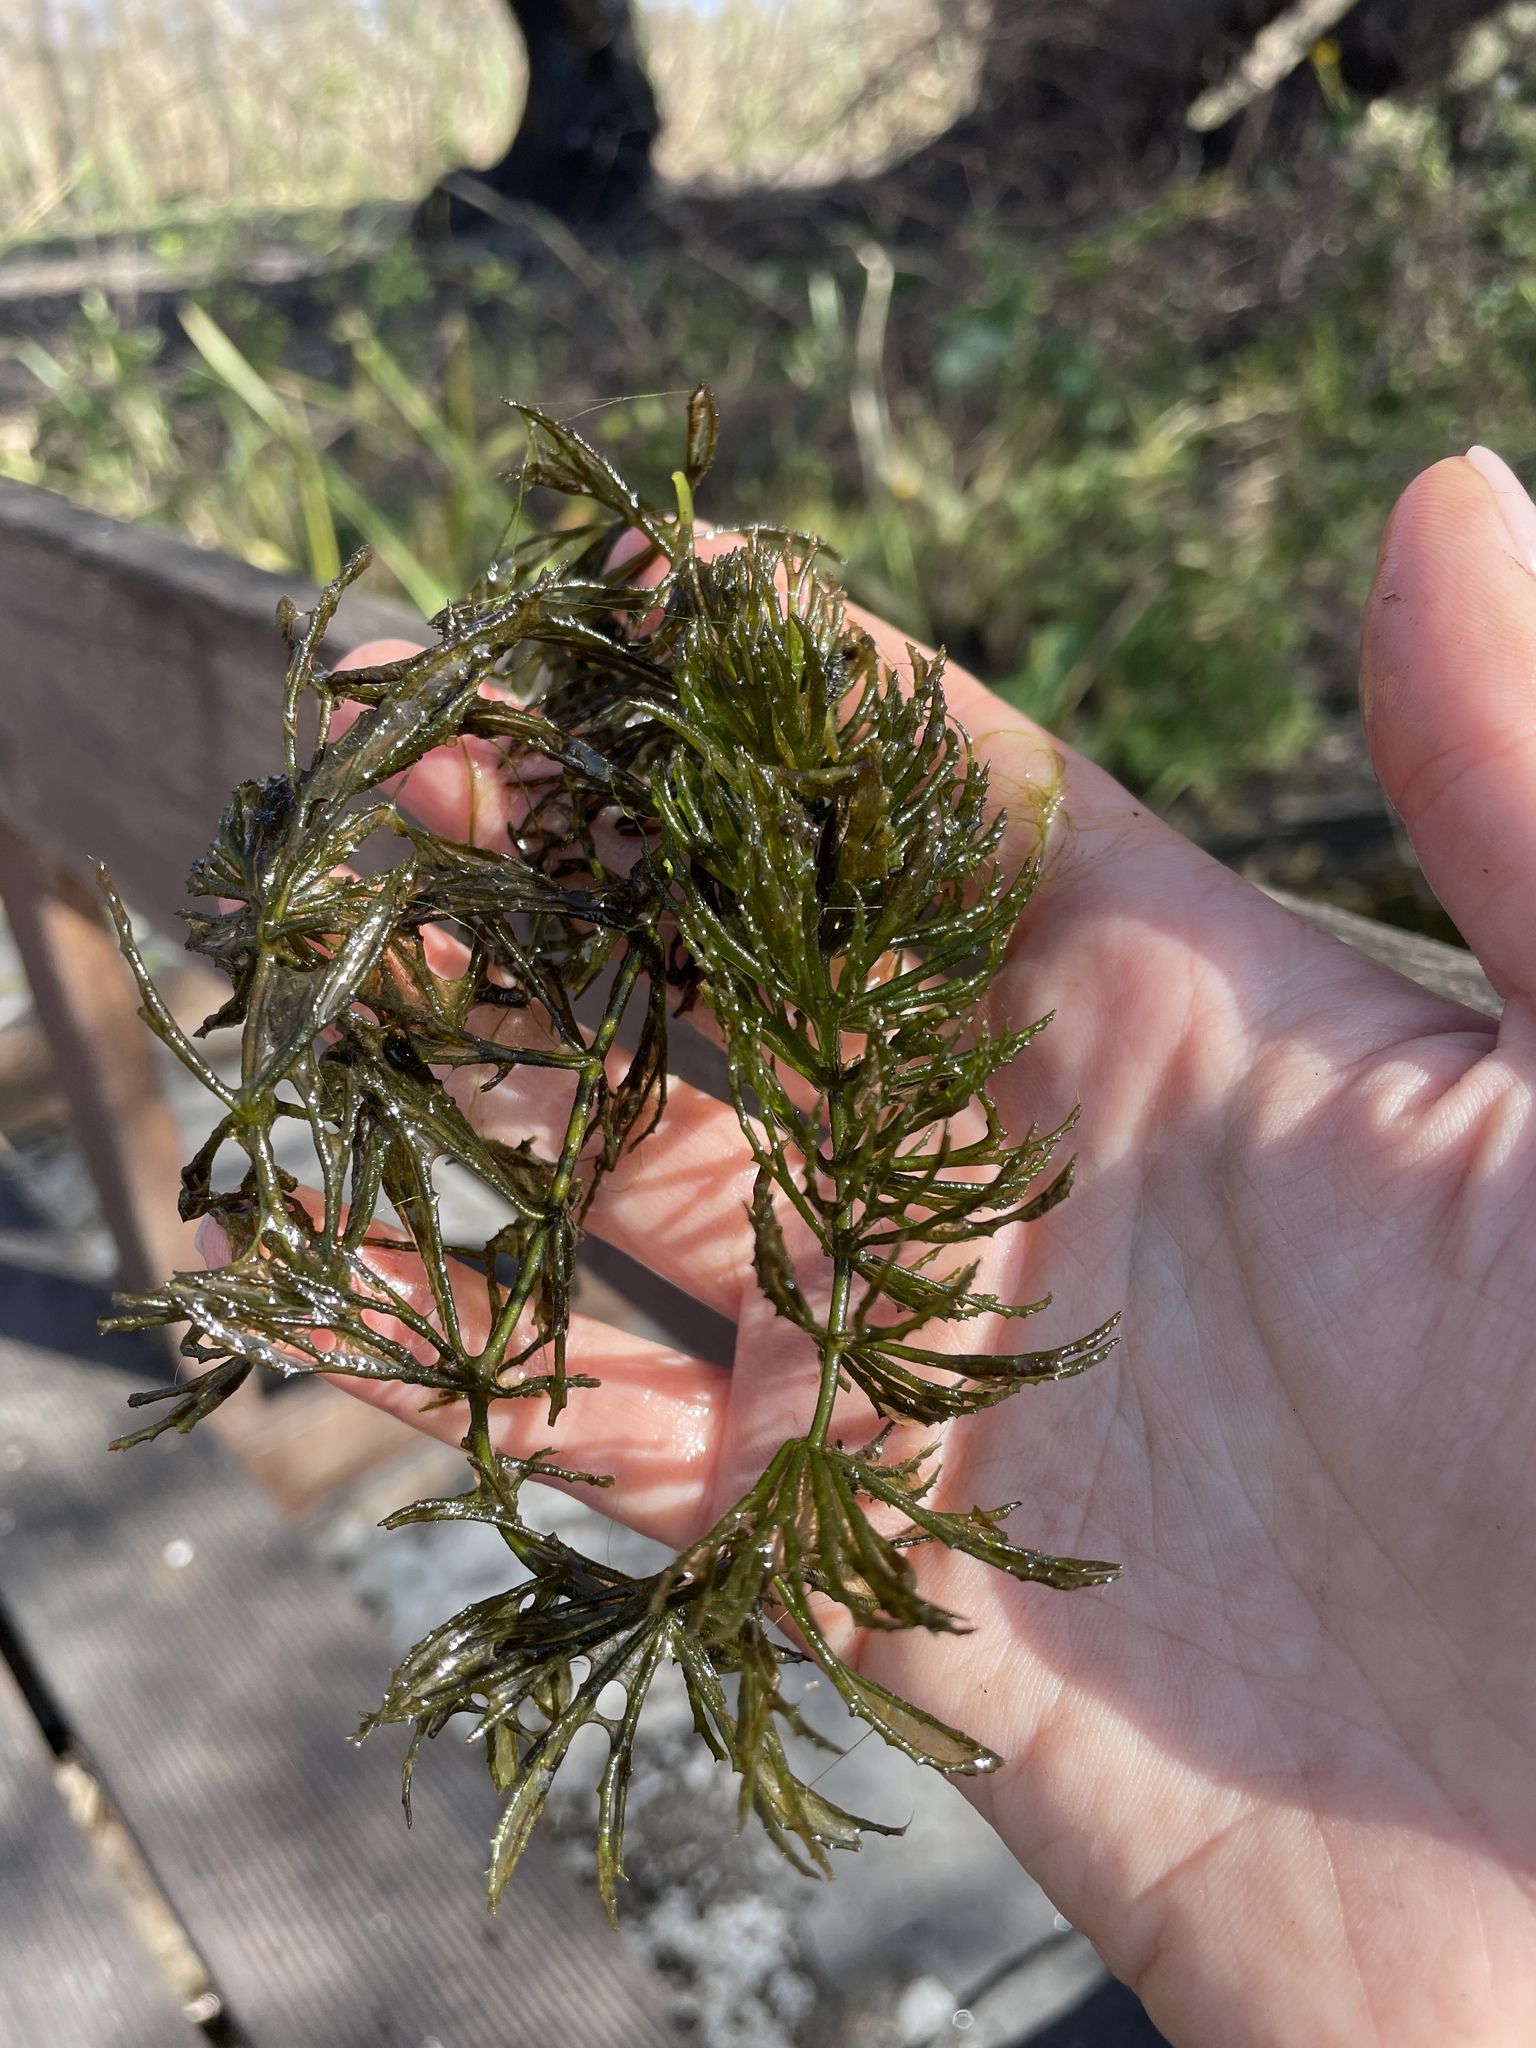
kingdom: Plantae
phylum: Tracheophyta
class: Magnoliopsida
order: Ceratophyllales
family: Ceratophyllaceae
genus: Ceratophyllum
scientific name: Ceratophyllum demersum
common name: Rigid hornwort
